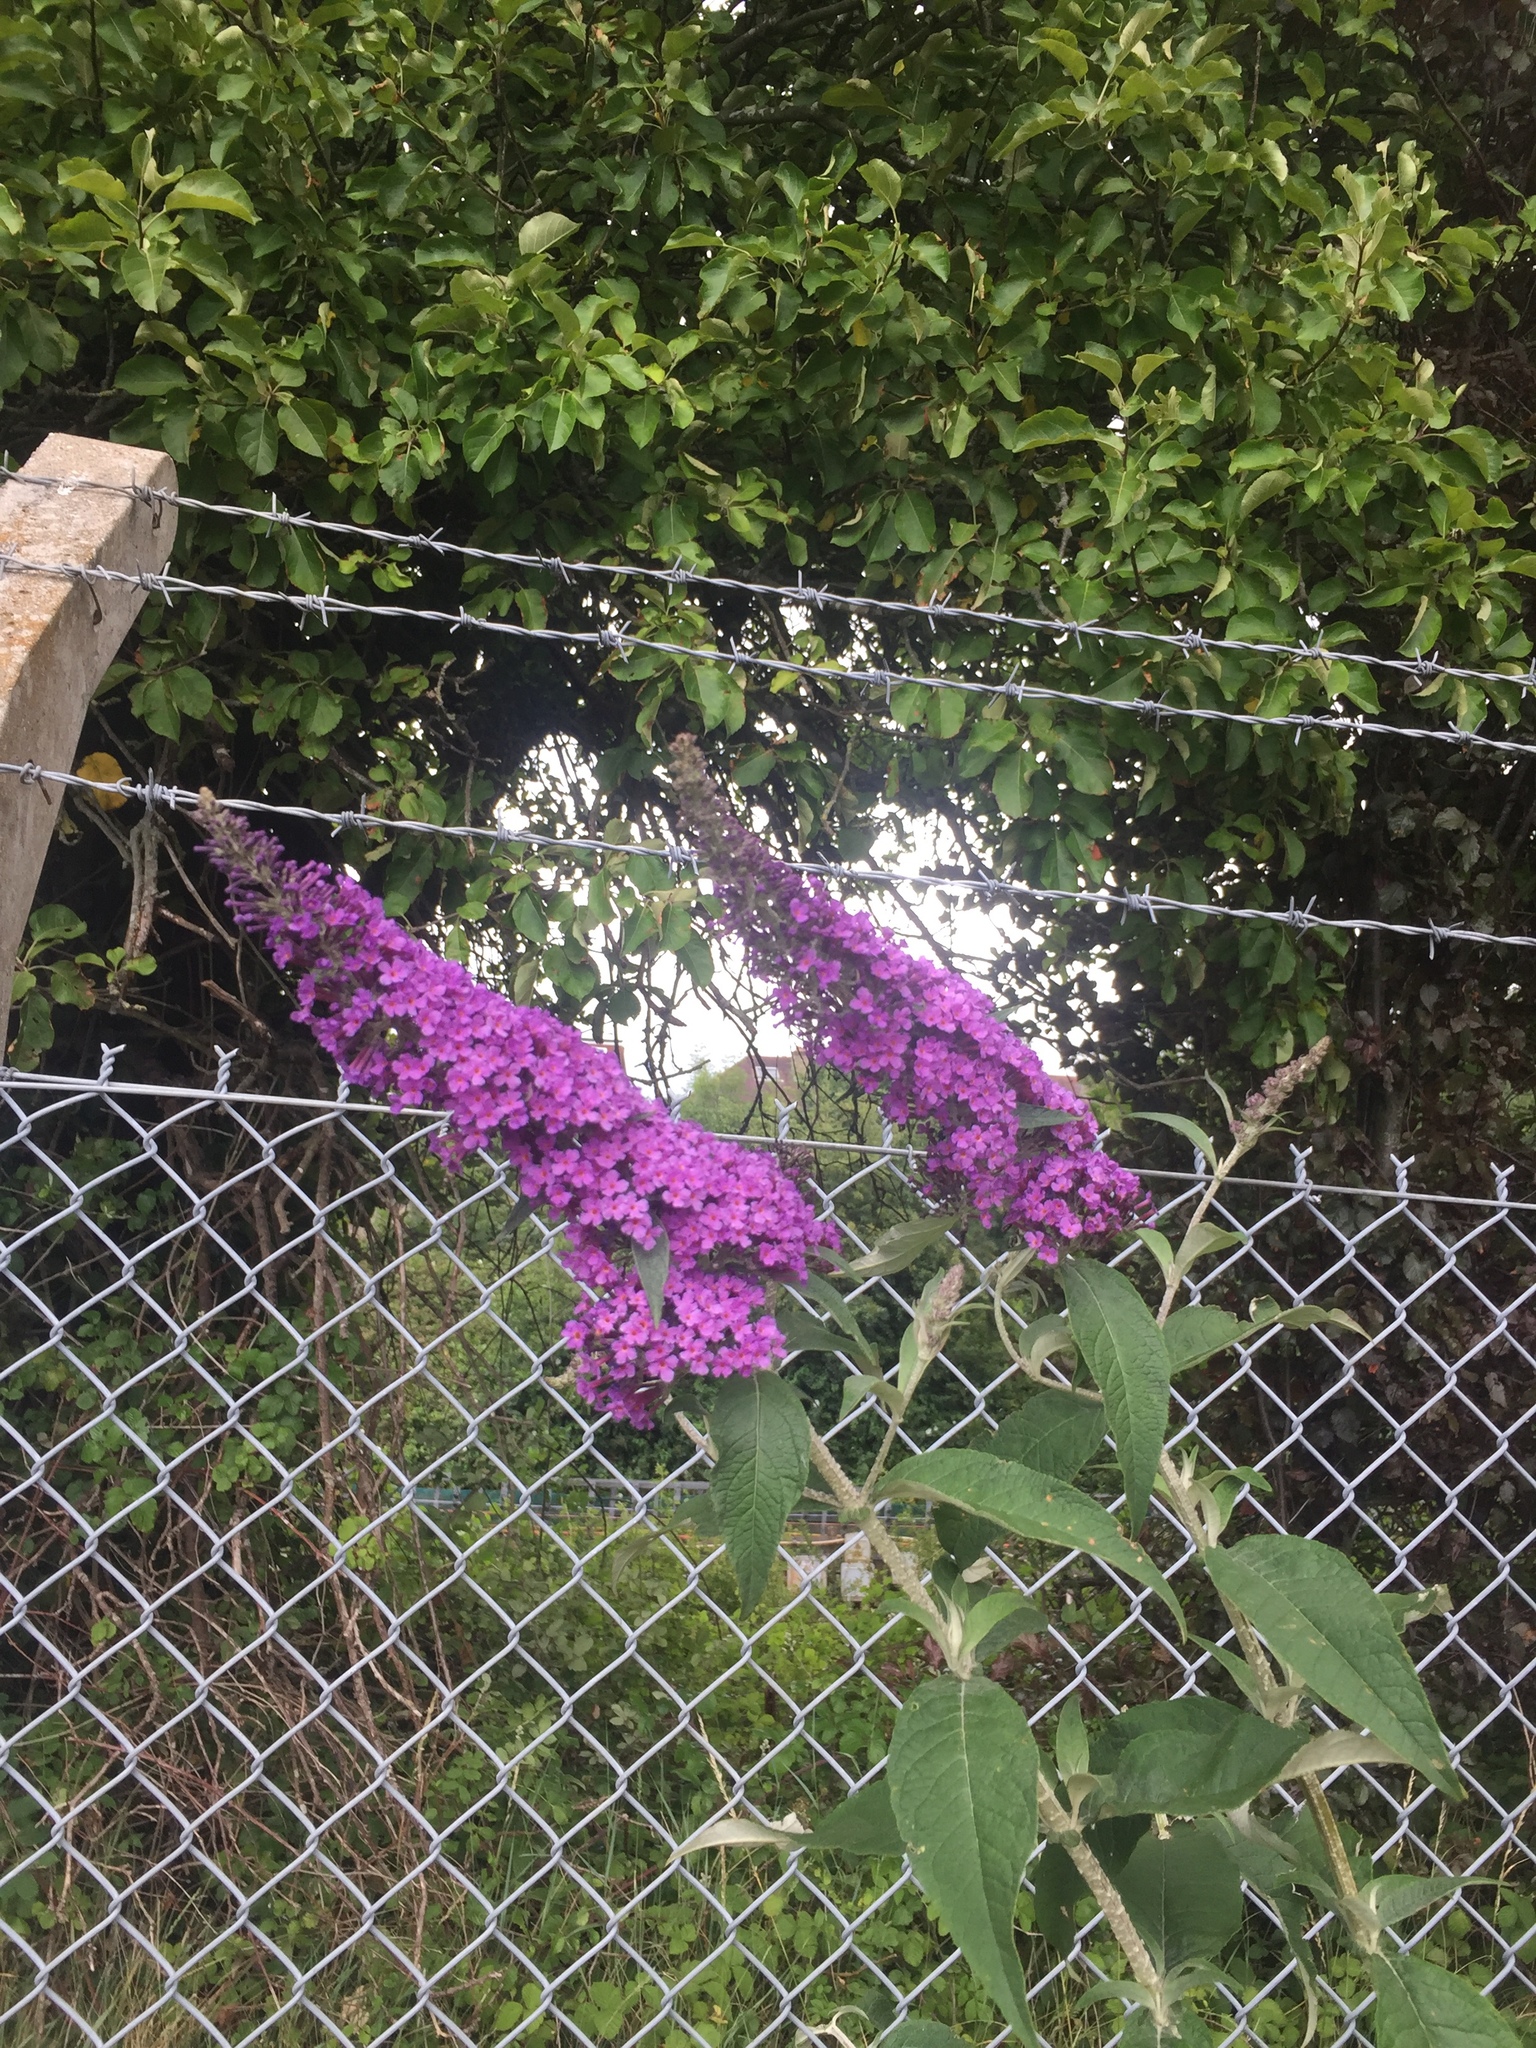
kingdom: Plantae
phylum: Tracheophyta
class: Magnoliopsida
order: Lamiales
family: Scrophulariaceae
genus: Buddleja
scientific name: Buddleja davidii
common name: Butterfly-bush
